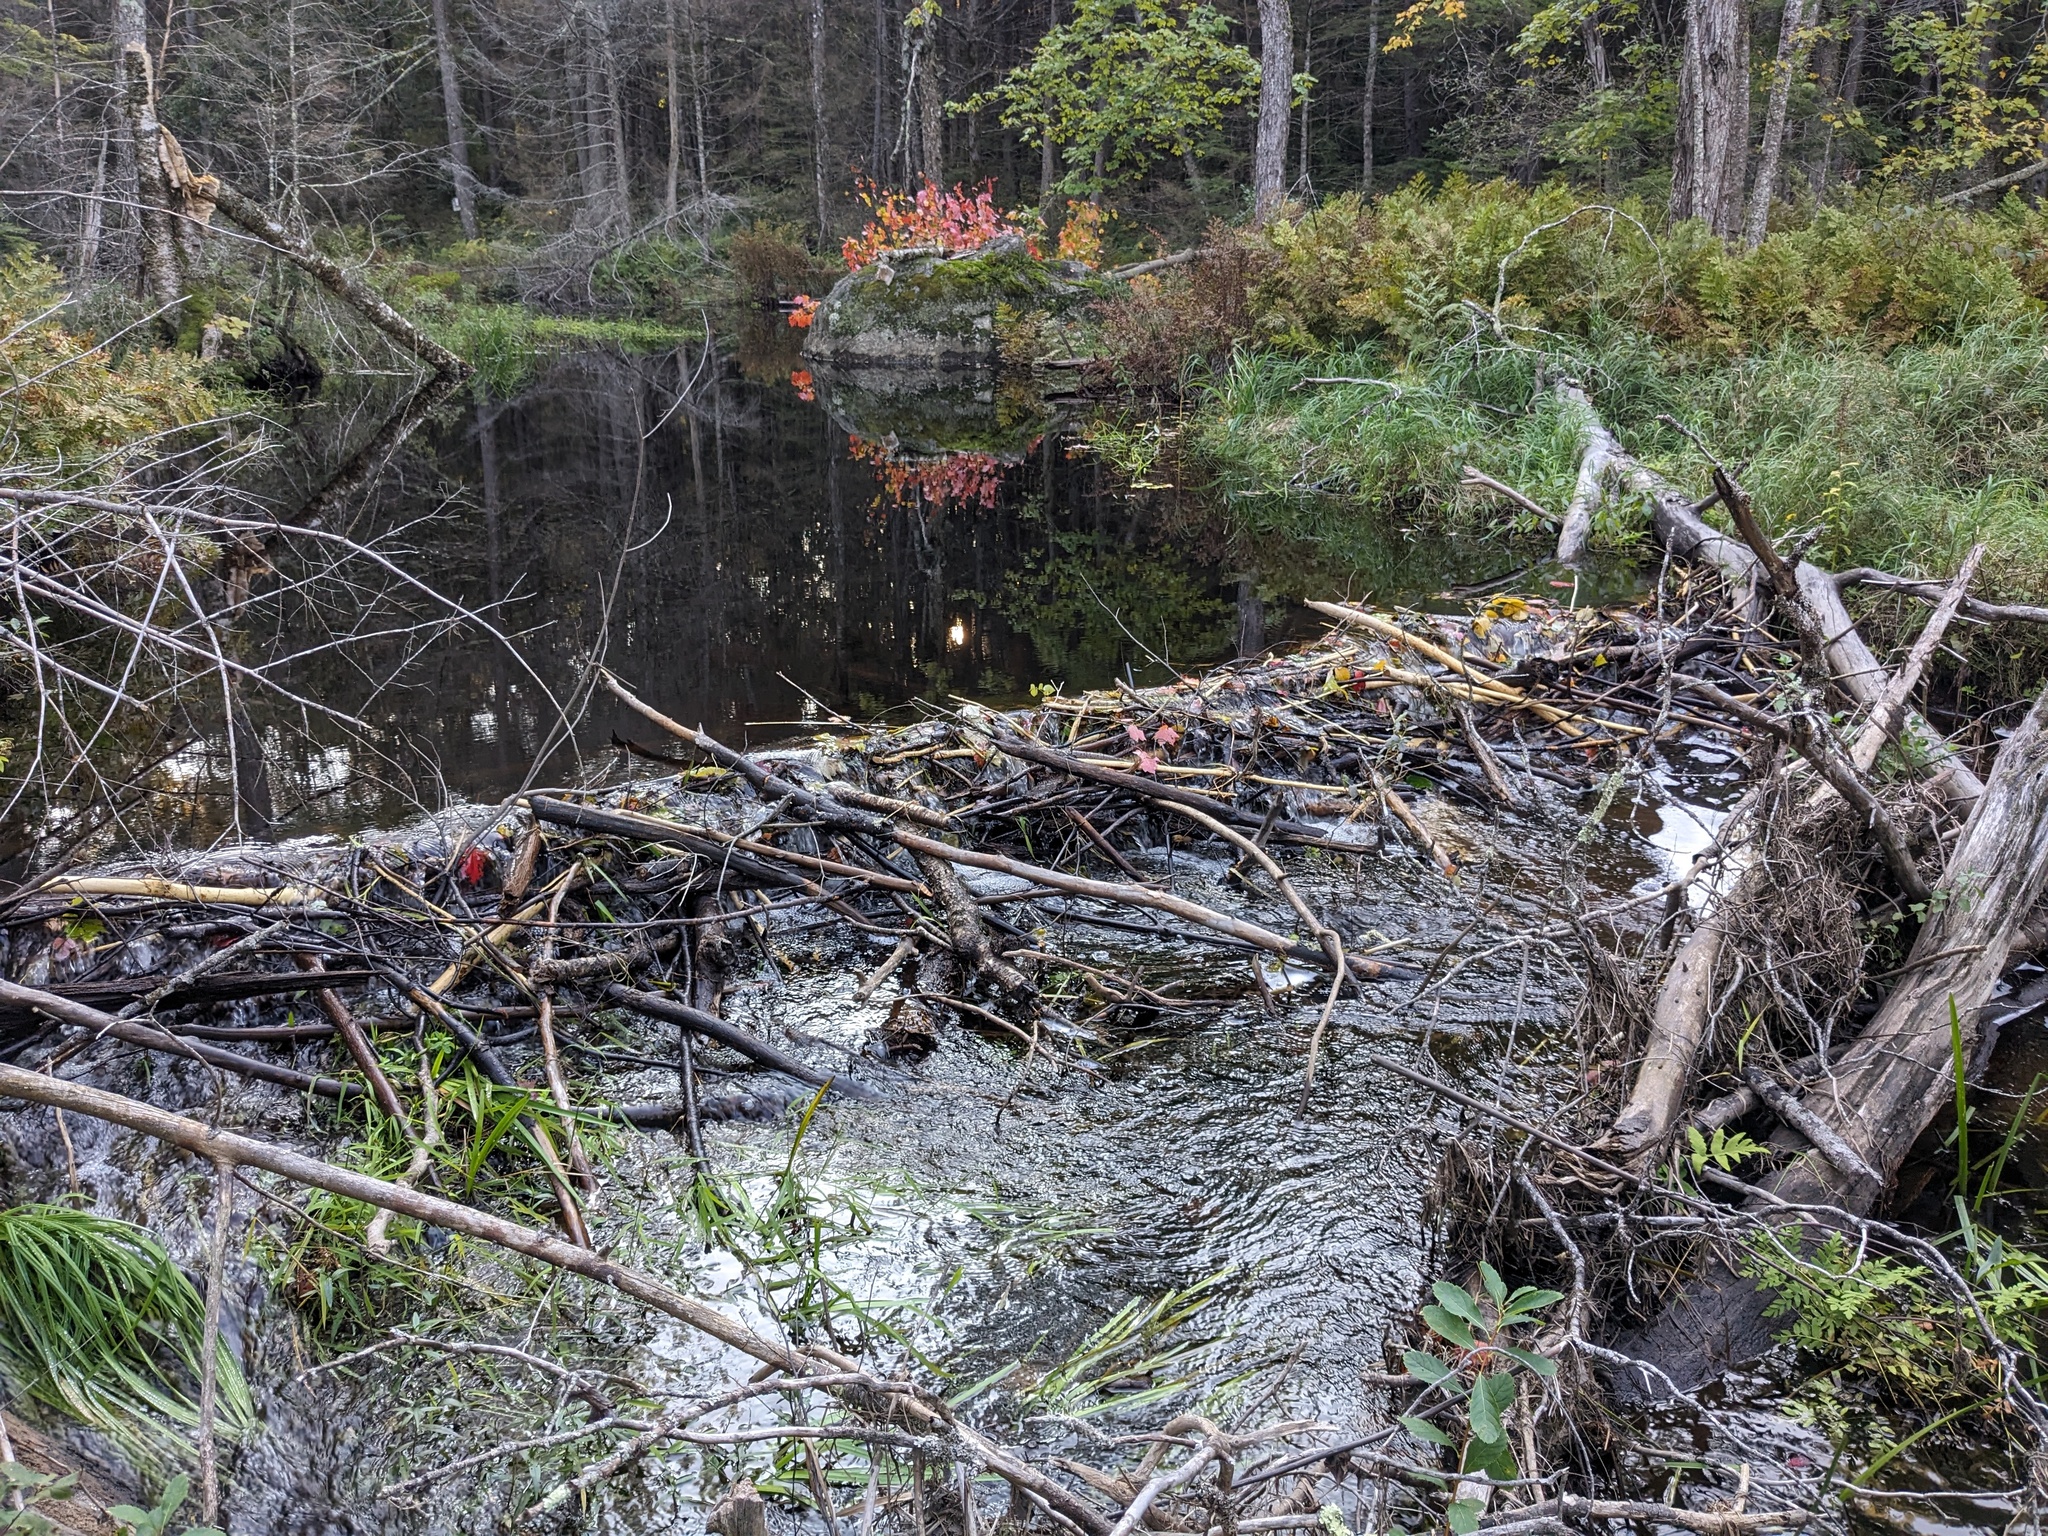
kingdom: Animalia
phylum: Chordata
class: Mammalia
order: Rodentia
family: Castoridae
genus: Castor
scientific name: Castor canadensis
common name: American beaver
